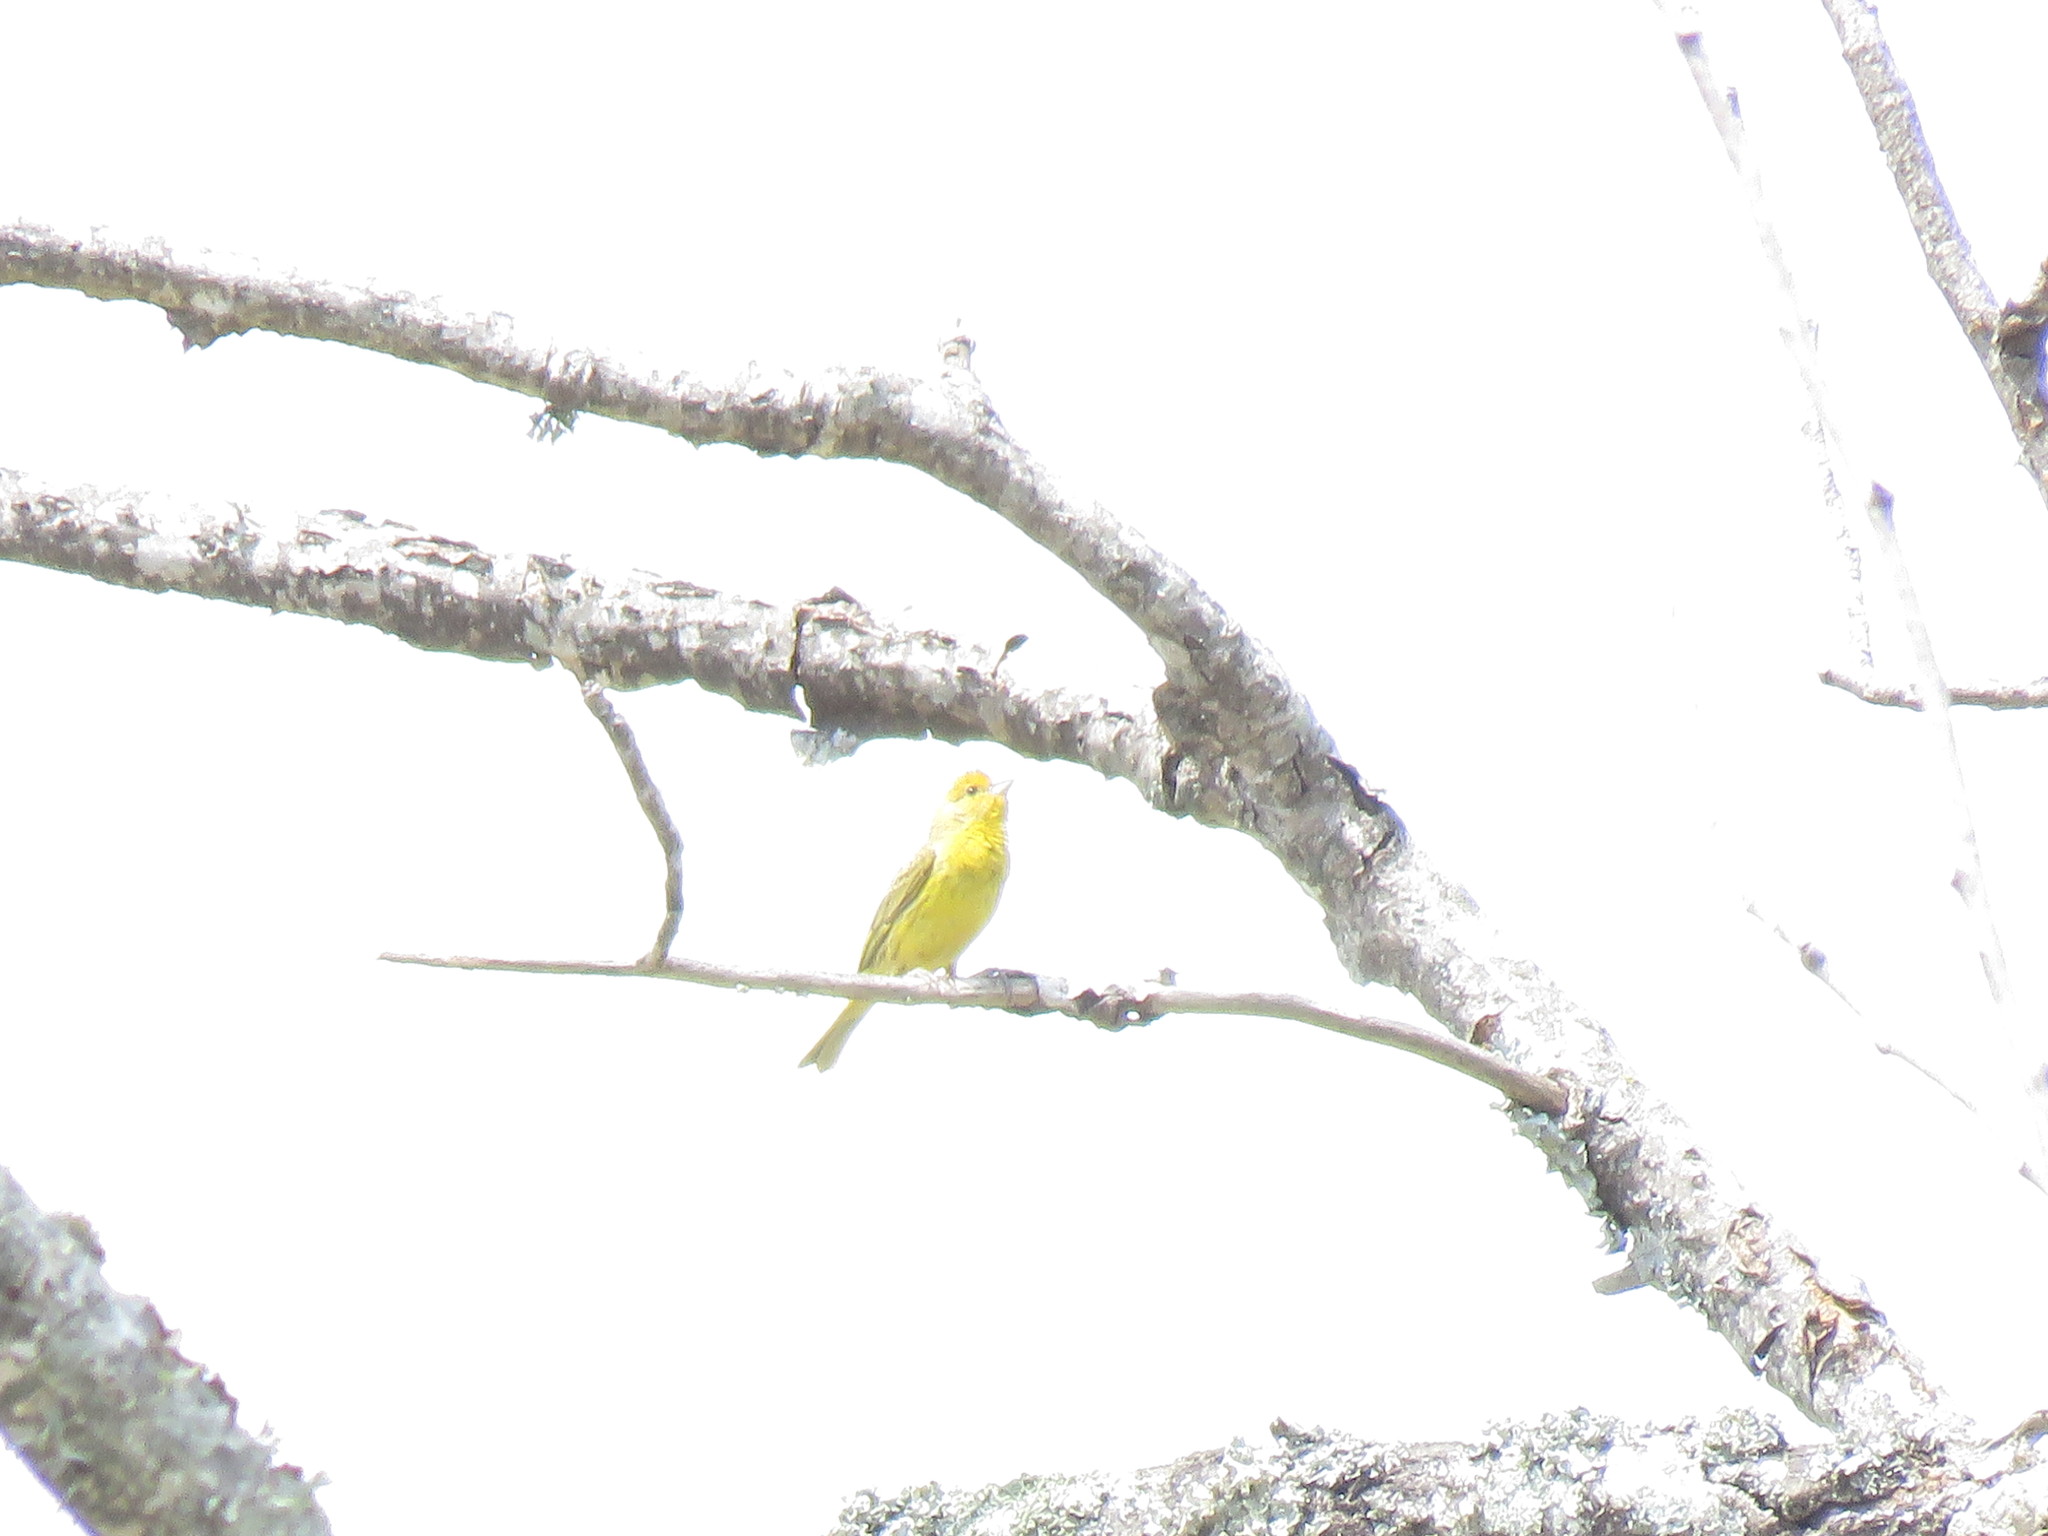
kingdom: Animalia
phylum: Chordata
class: Aves
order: Passeriformes
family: Thraupidae
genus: Sicalis
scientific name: Sicalis flaveola
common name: Saffron finch
